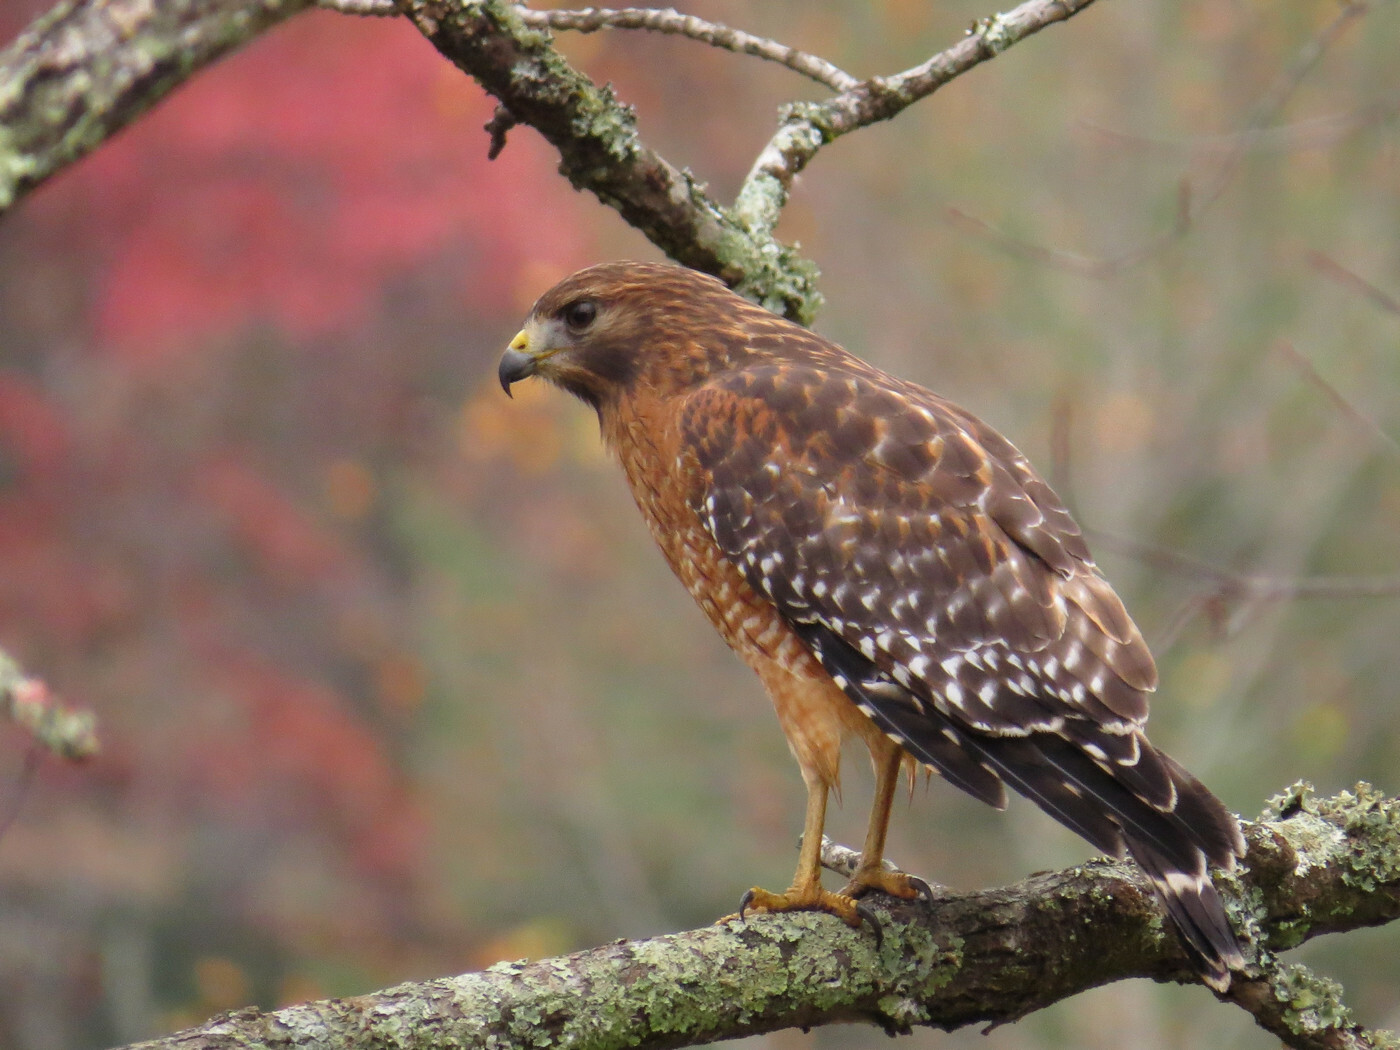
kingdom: Animalia
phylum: Chordata
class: Aves
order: Accipitriformes
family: Accipitridae
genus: Buteo
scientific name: Buteo lineatus
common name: Red-shouldered hawk
